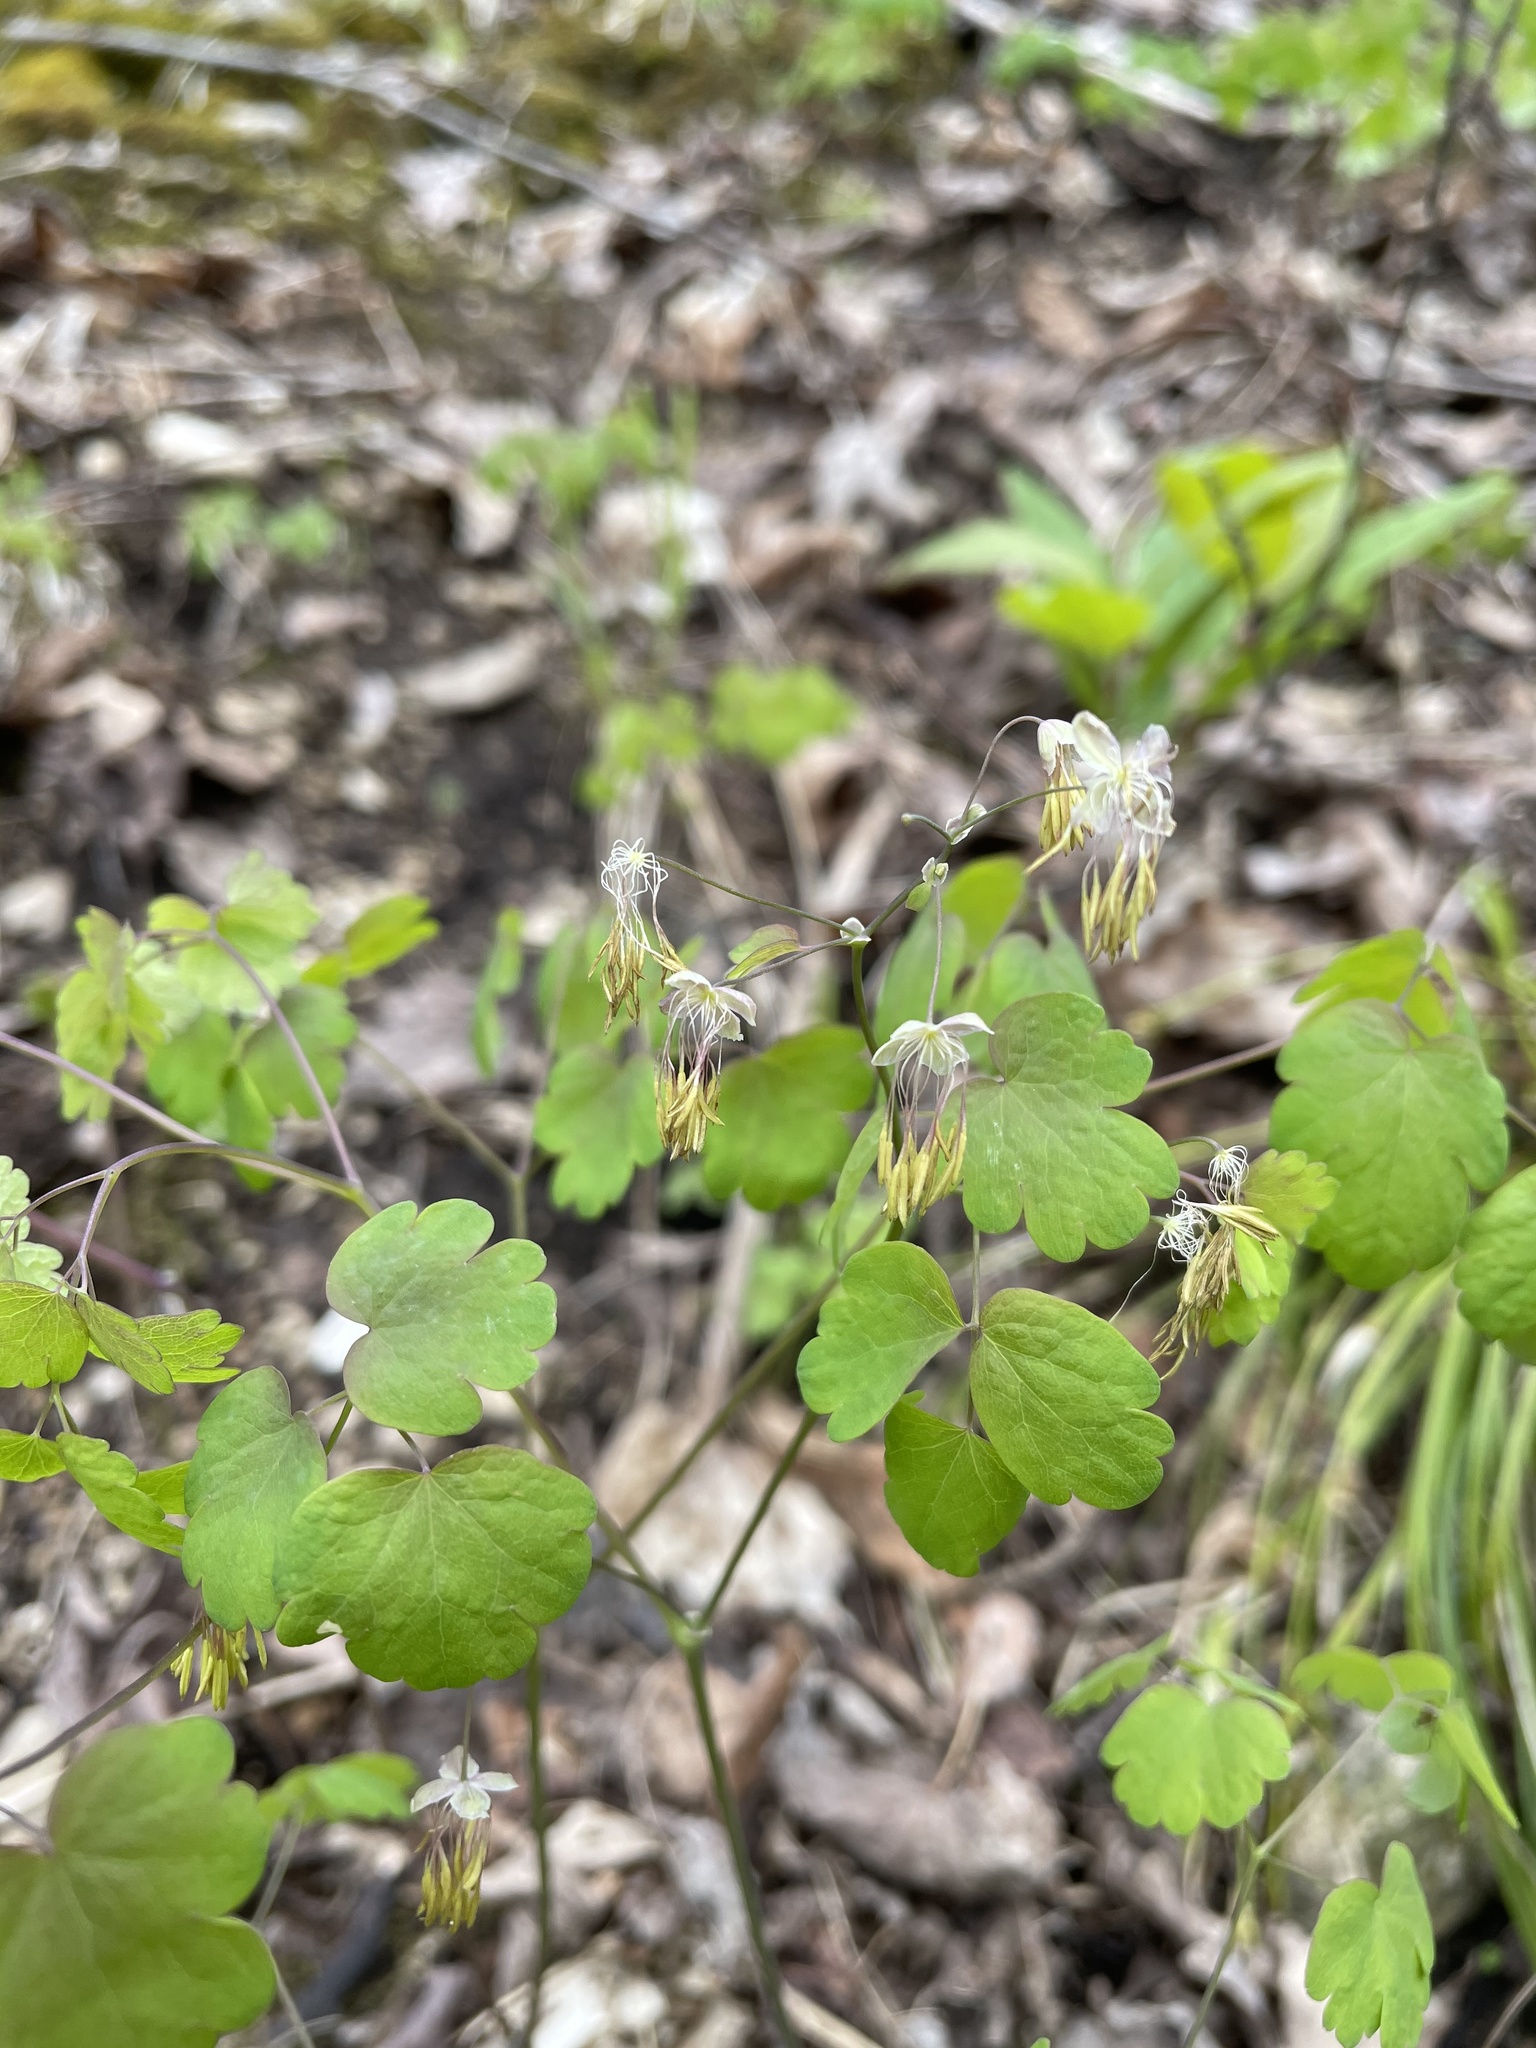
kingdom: Plantae
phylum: Tracheophyta
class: Magnoliopsida
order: Ranunculales
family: Ranunculaceae
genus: Thalictrum
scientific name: Thalictrum dioicum
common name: Early meadow-rue
